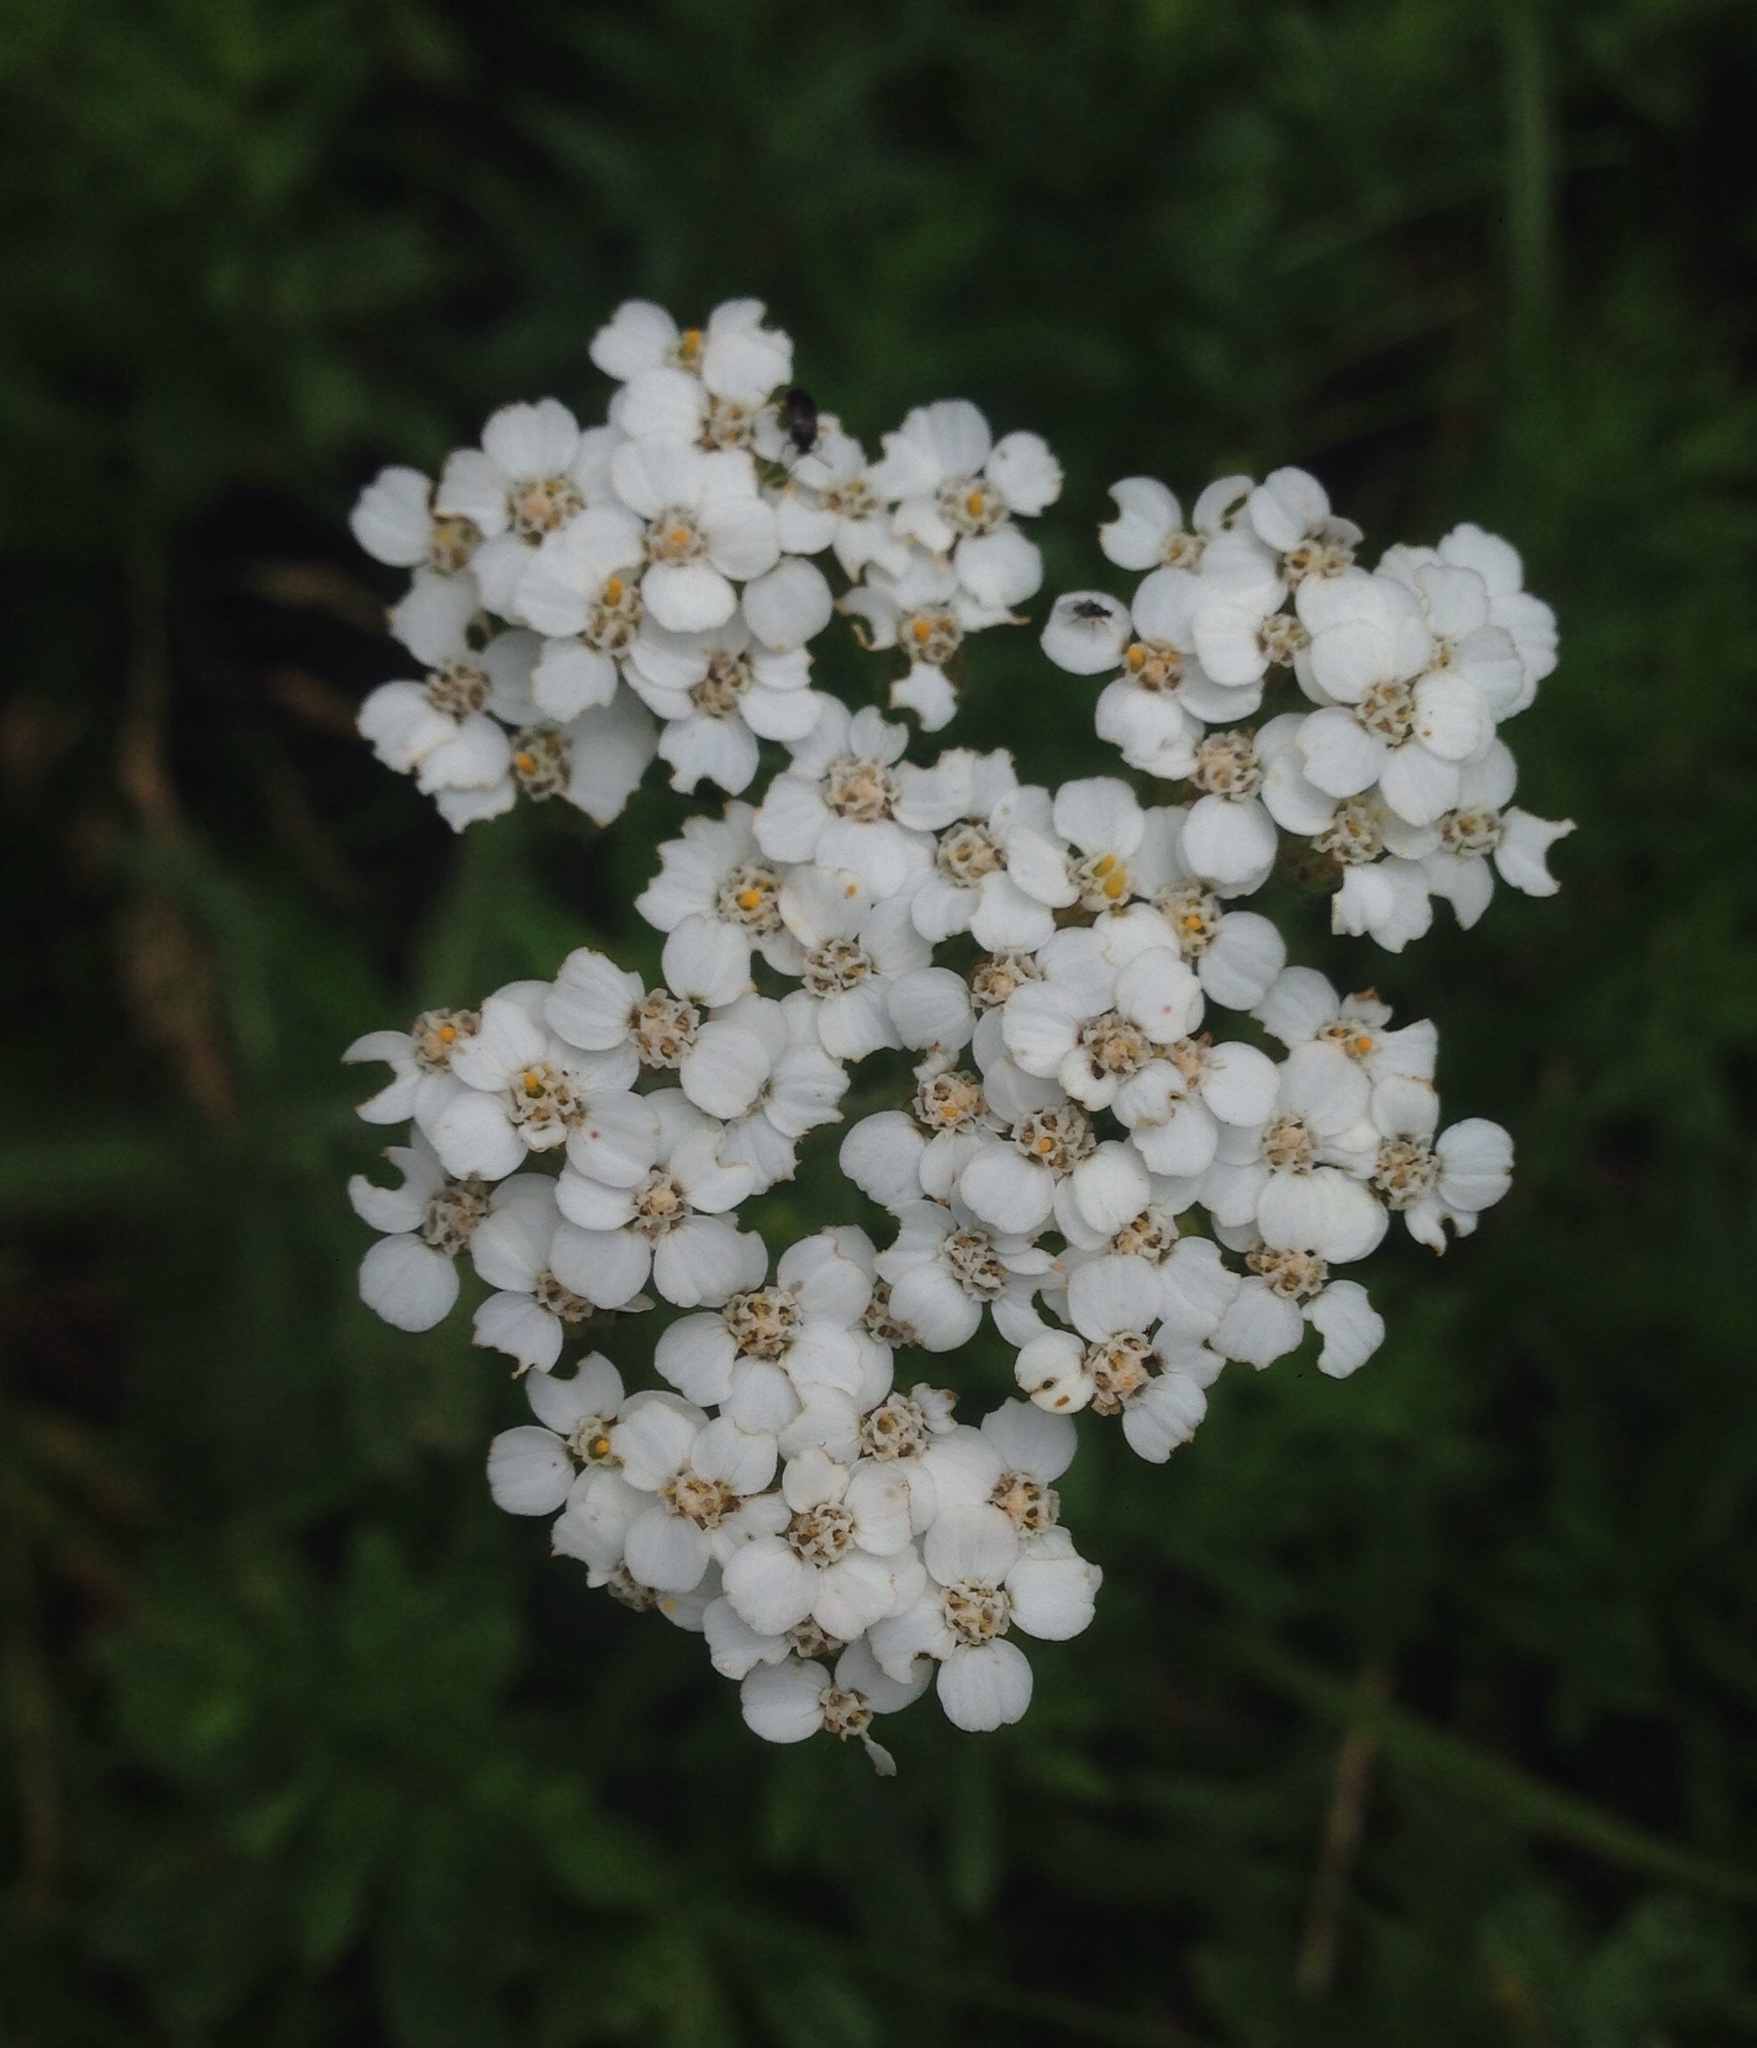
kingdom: Plantae
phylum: Tracheophyta
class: Magnoliopsida
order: Asterales
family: Asteraceae
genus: Achillea
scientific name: Achillea millefolium
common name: Yarrow
